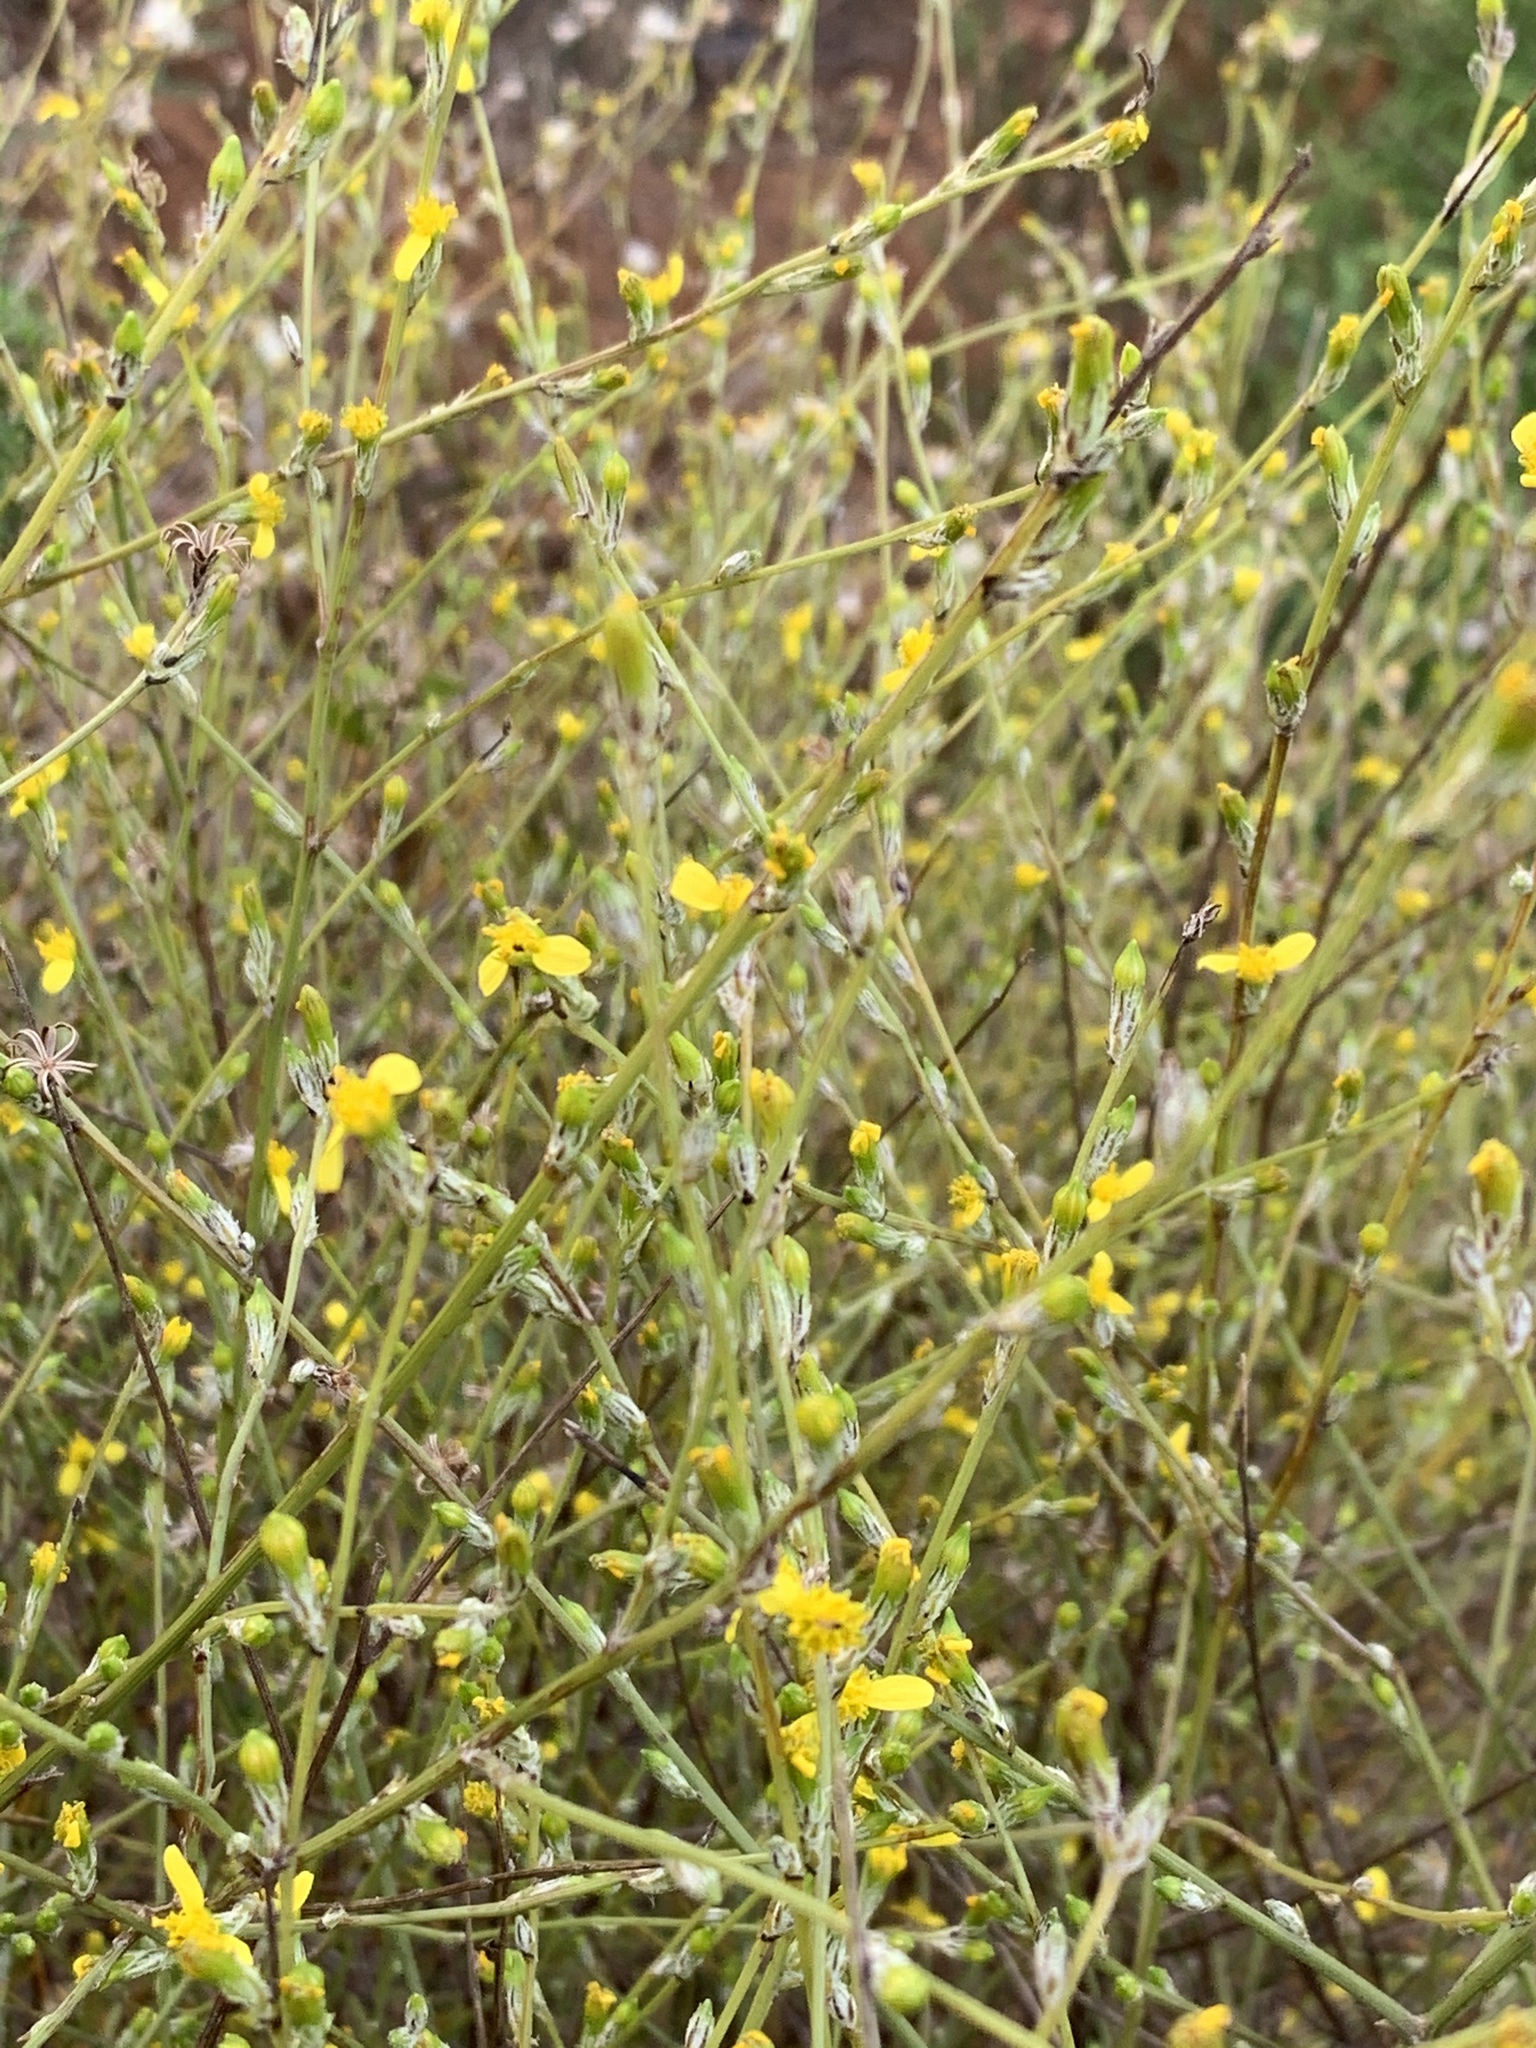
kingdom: Plantae
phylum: Tracheophyta
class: Magnoliopsida
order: Asterales
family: Asteraceae
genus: Senecio
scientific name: Senecio pubigerus
